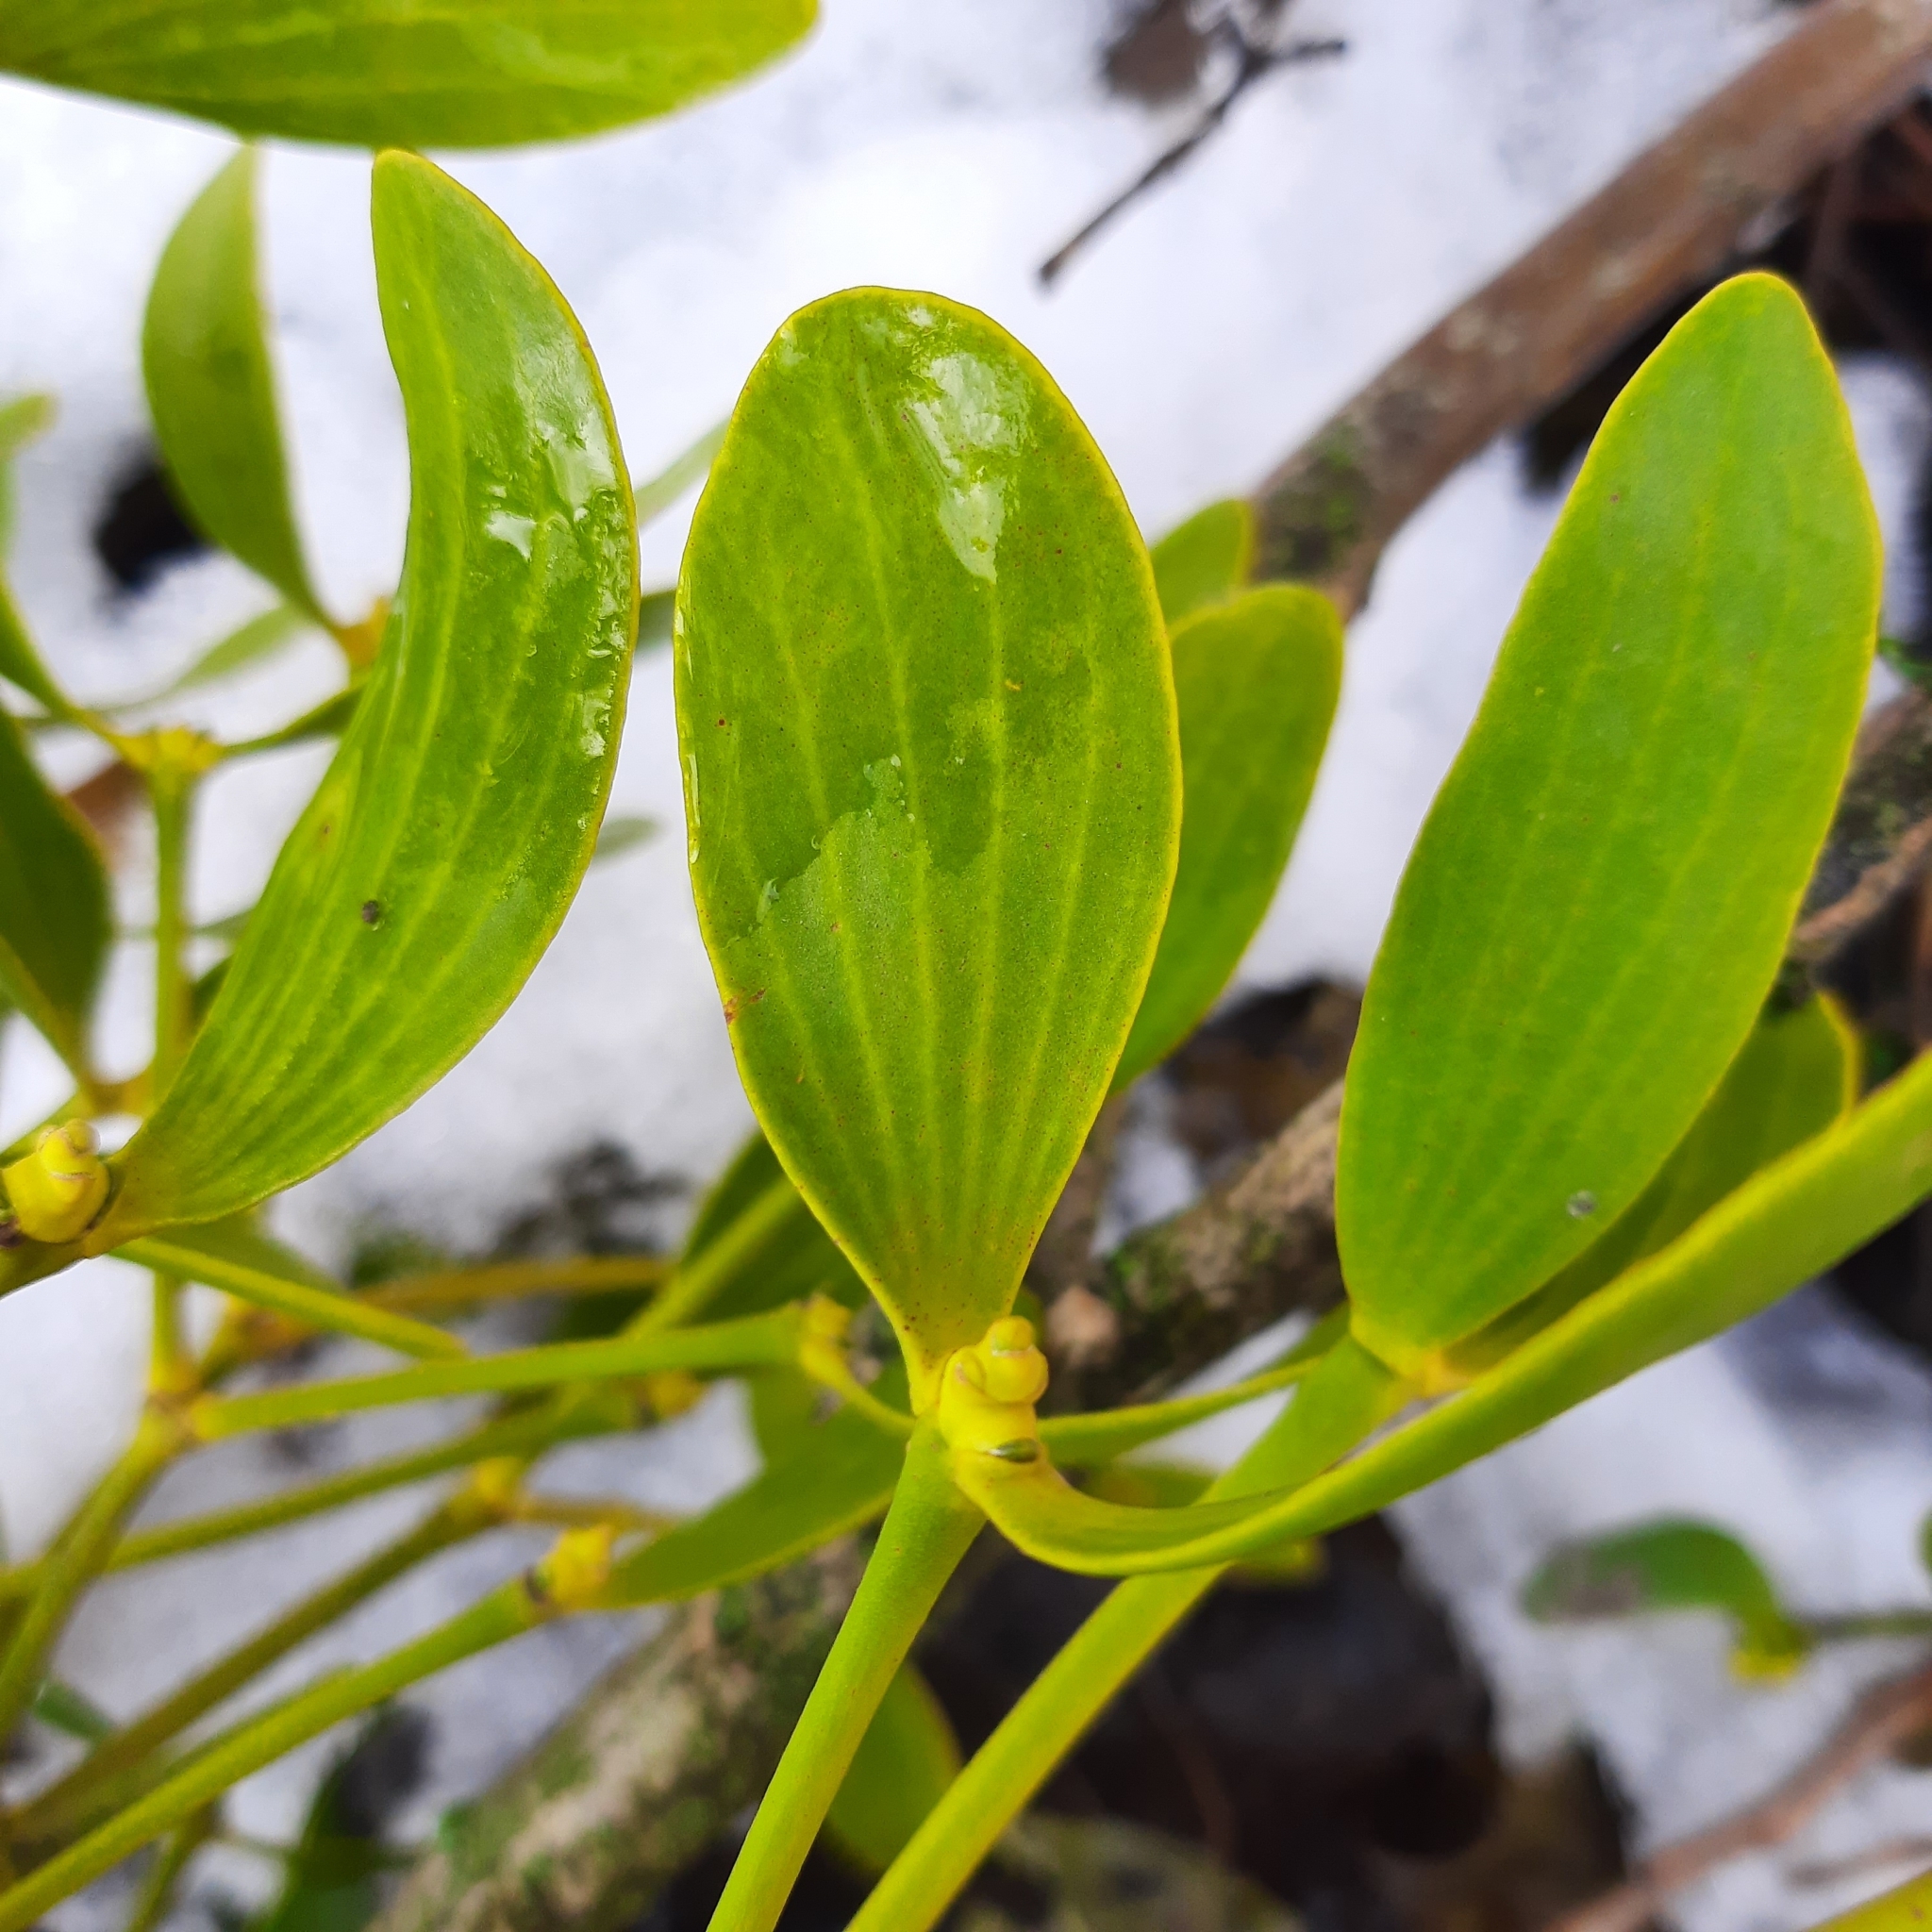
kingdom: Plantae
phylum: Tracheophyta
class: Magnoliopsida
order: Santalales
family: Viscaceae
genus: Viscum
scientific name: Viscum album
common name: Mistletoe
